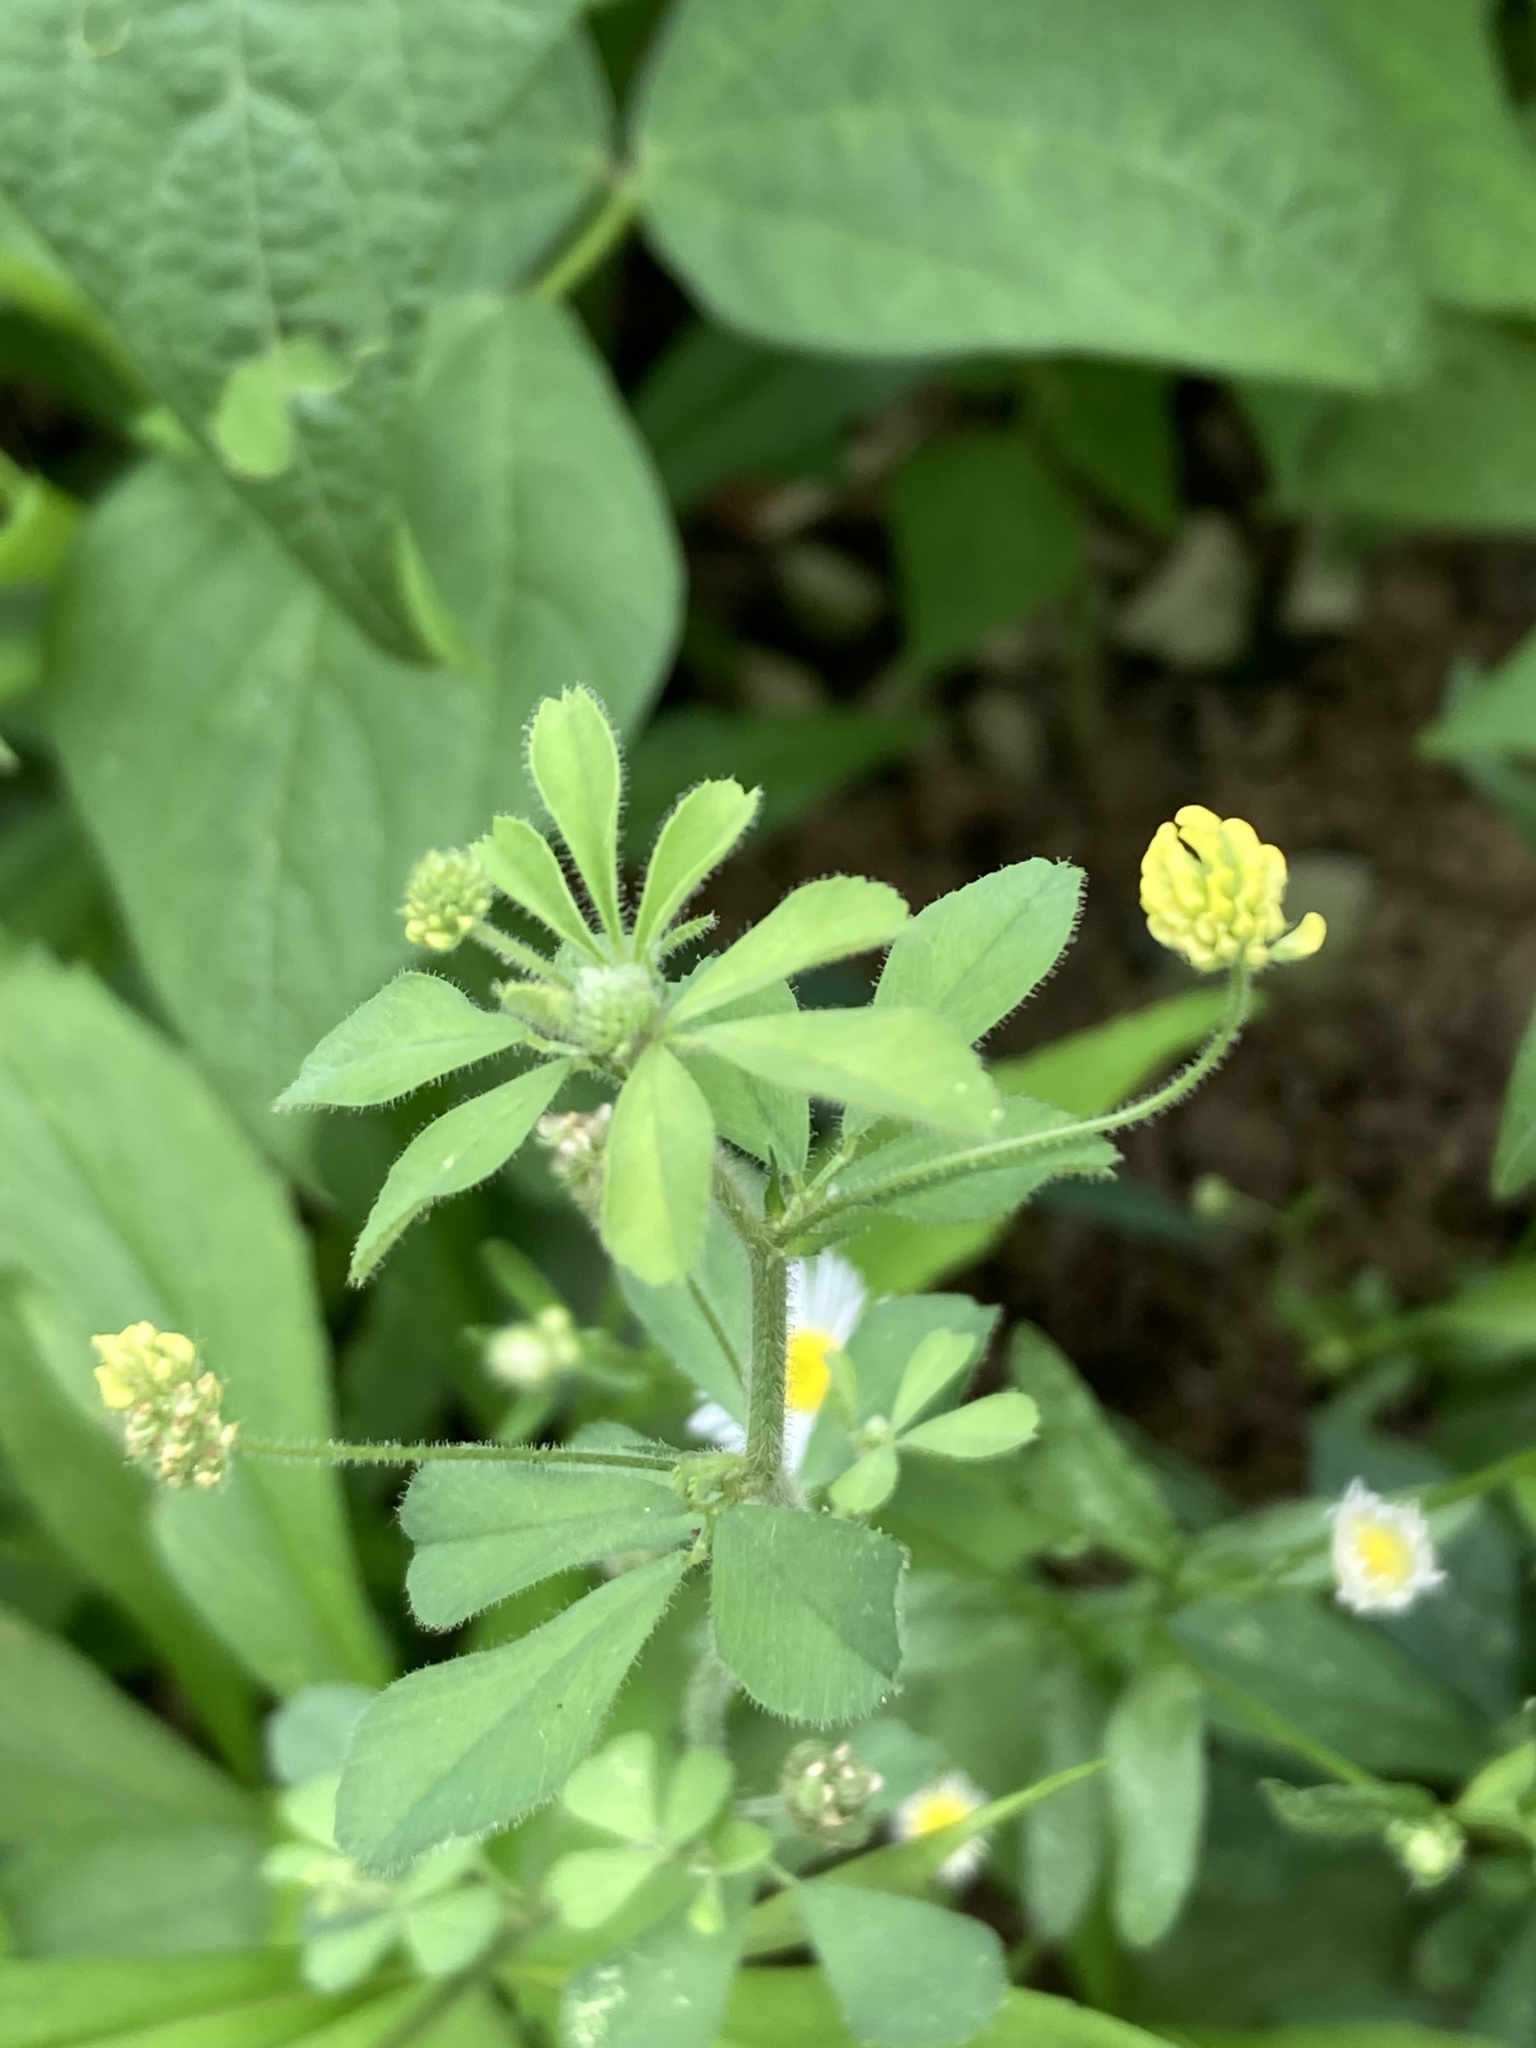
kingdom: Plantae
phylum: Tracheophyta
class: Magnoliopsida
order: Fabales
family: Fabaceae
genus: Medicago
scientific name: Medicago lupulina
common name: Black medick
